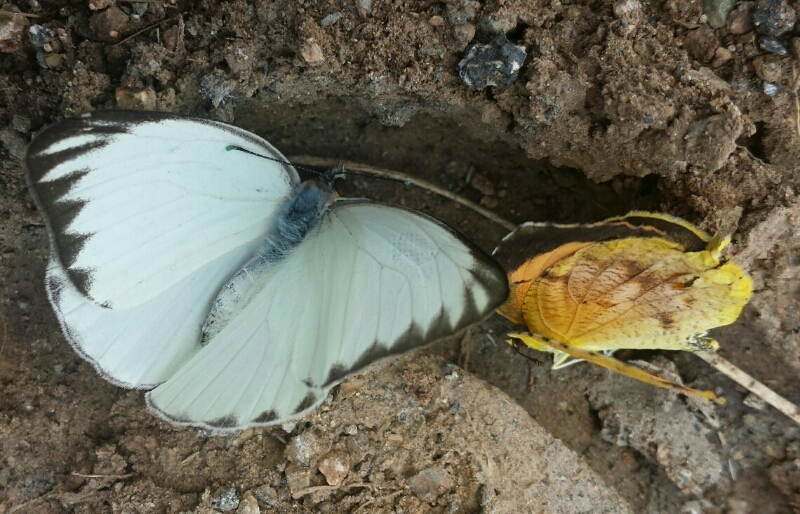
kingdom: Animalia
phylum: Arthropoda
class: Insecta
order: Lepidoptera
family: Pieridae
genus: Ascia
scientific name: Ascia monuste
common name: Great southern white
